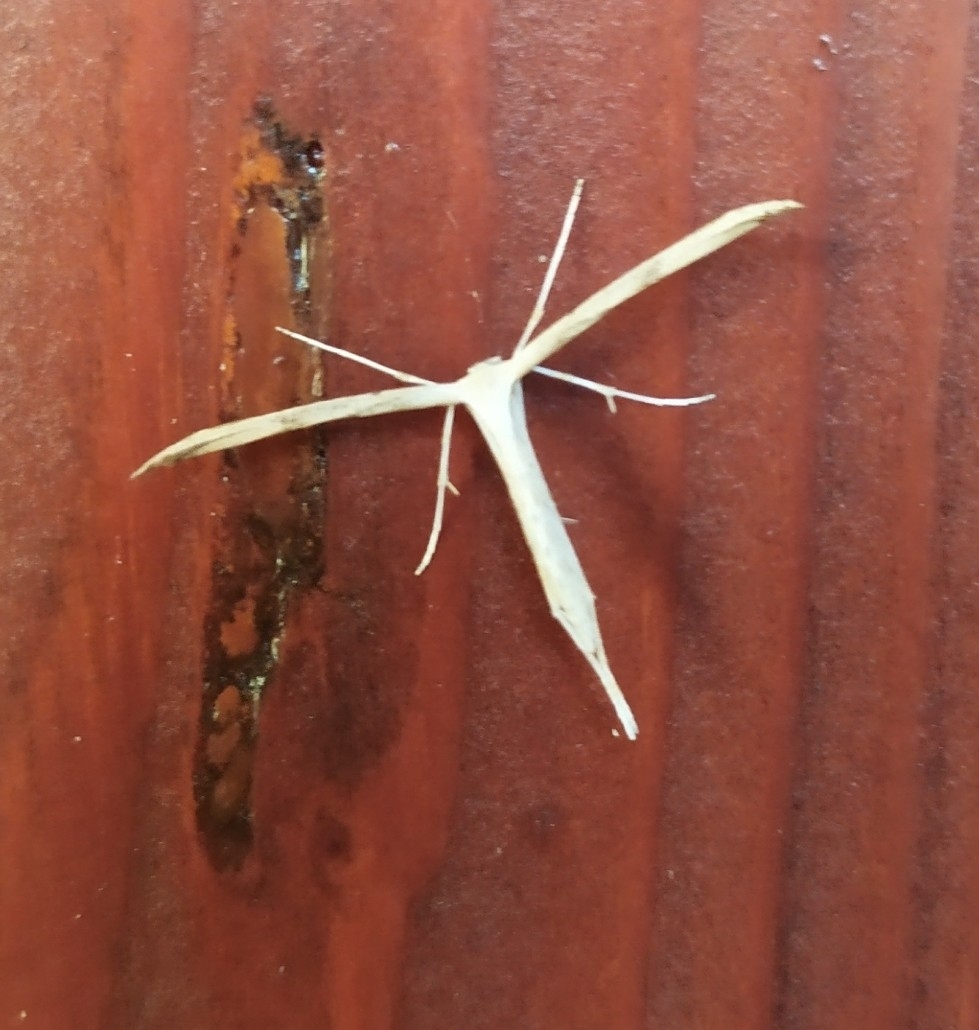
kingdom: Animalia
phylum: Arthropoda
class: Insecta
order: Lepidoptera
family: Pterophoridae
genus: Emmelina
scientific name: Emmelina monodactyla
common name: Common plume
